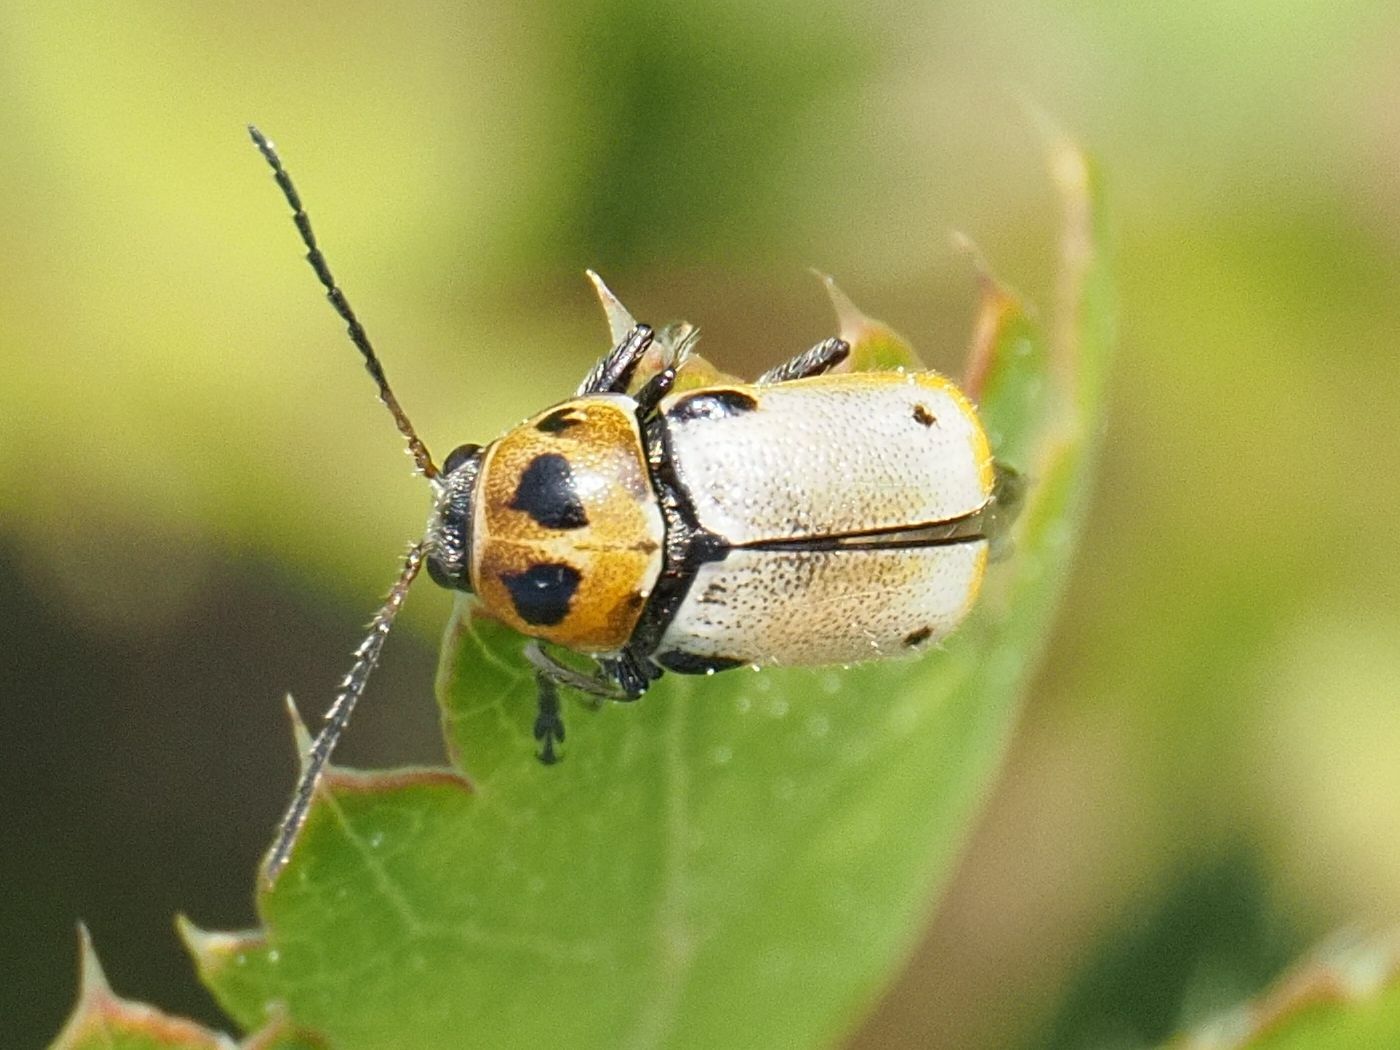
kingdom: Animalia
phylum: Arthropoda
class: Insecta
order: Coleoptera
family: Chrysomelidae
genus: Cryptocephalus
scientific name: Cryptocephalus quatuordecimmaculatus
